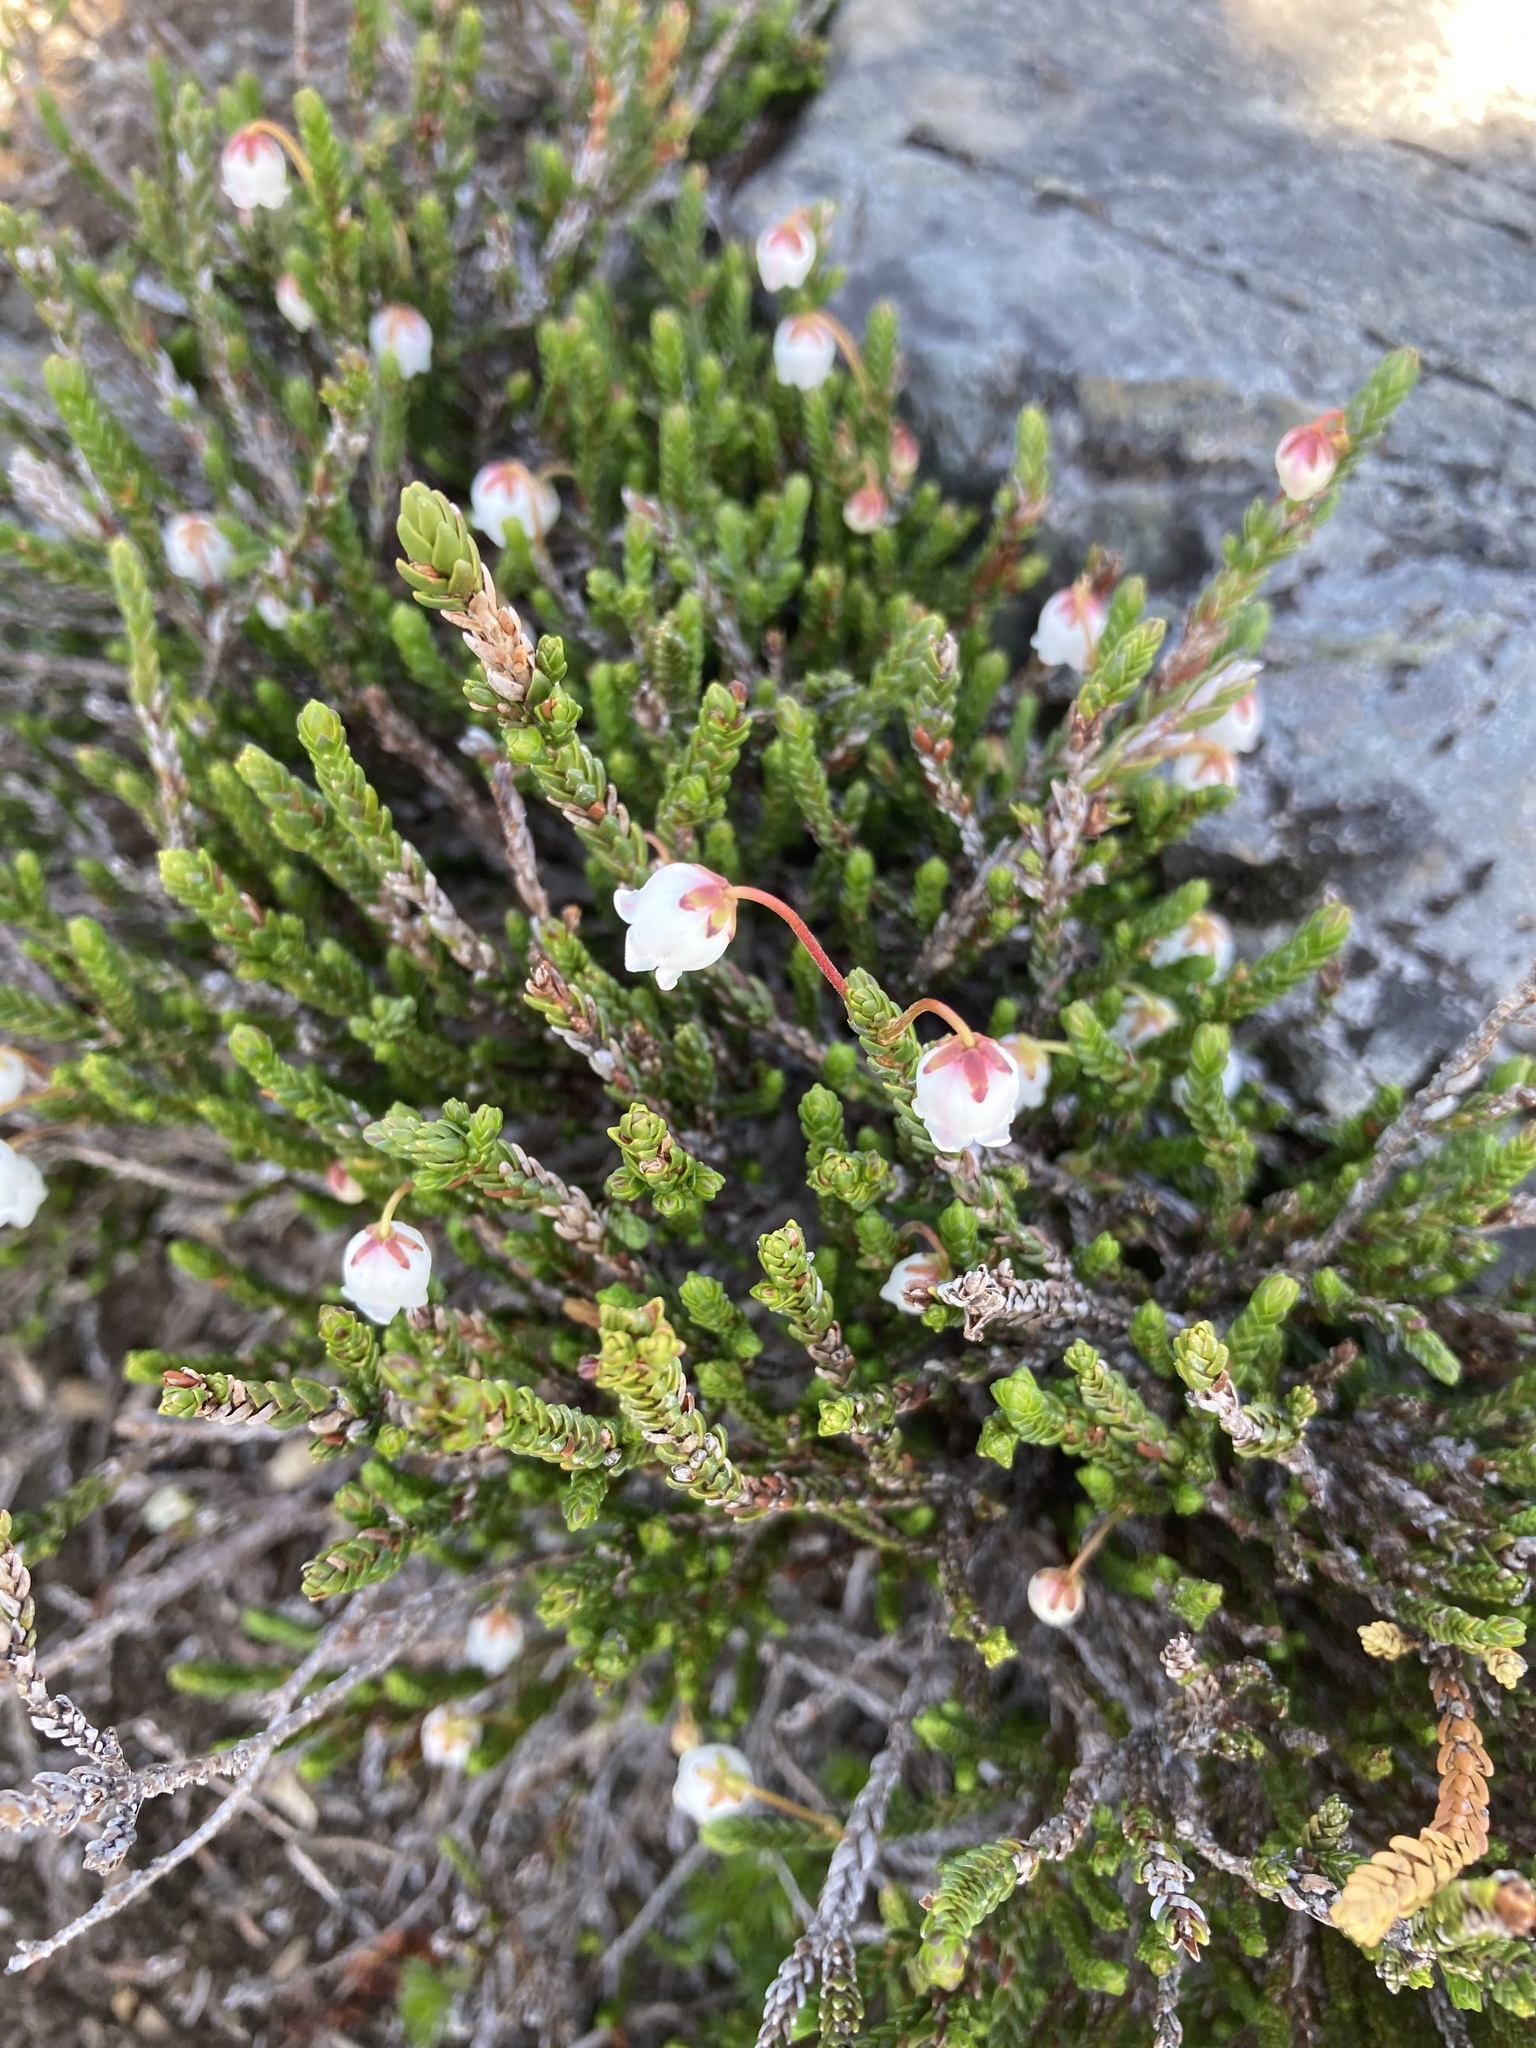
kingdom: Plantae
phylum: Tracheophyta
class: Magnoliopsida
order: Ericales
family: Ericaceae
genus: Cassiope
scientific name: Cassiope mertensiana
